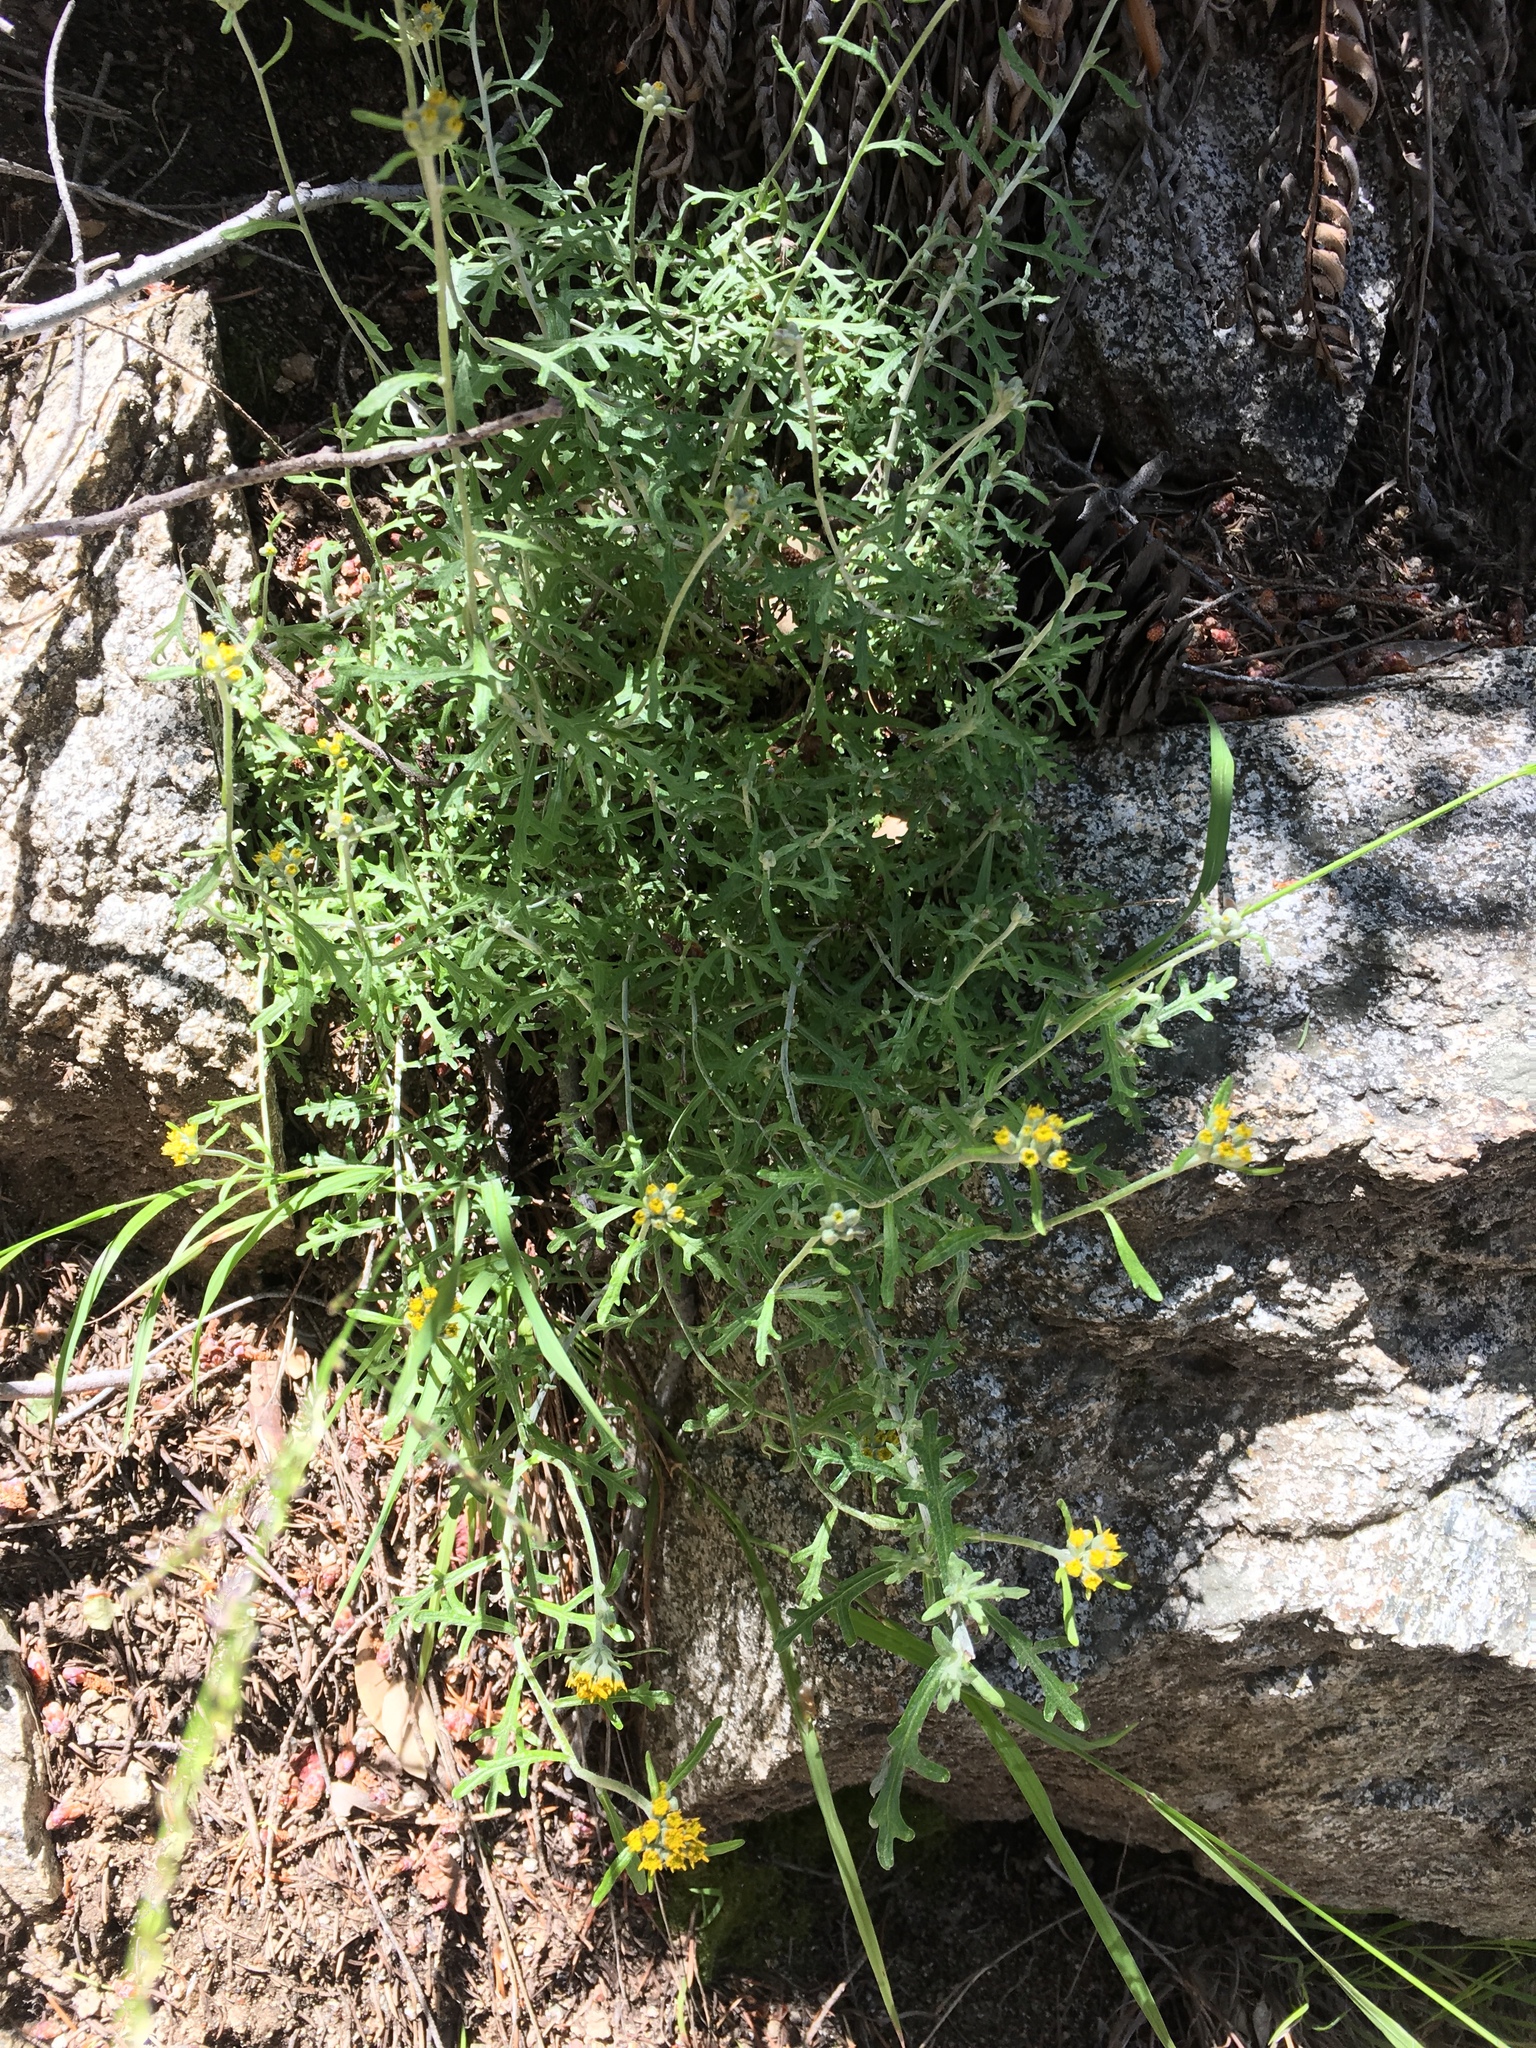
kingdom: Plantae
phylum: Tracheophyta
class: Magnoliopsida
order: Asterales
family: Asteraceae
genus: Eriophyllum
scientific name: Eriophyllum confertiflorum
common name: Golden-yarrow
